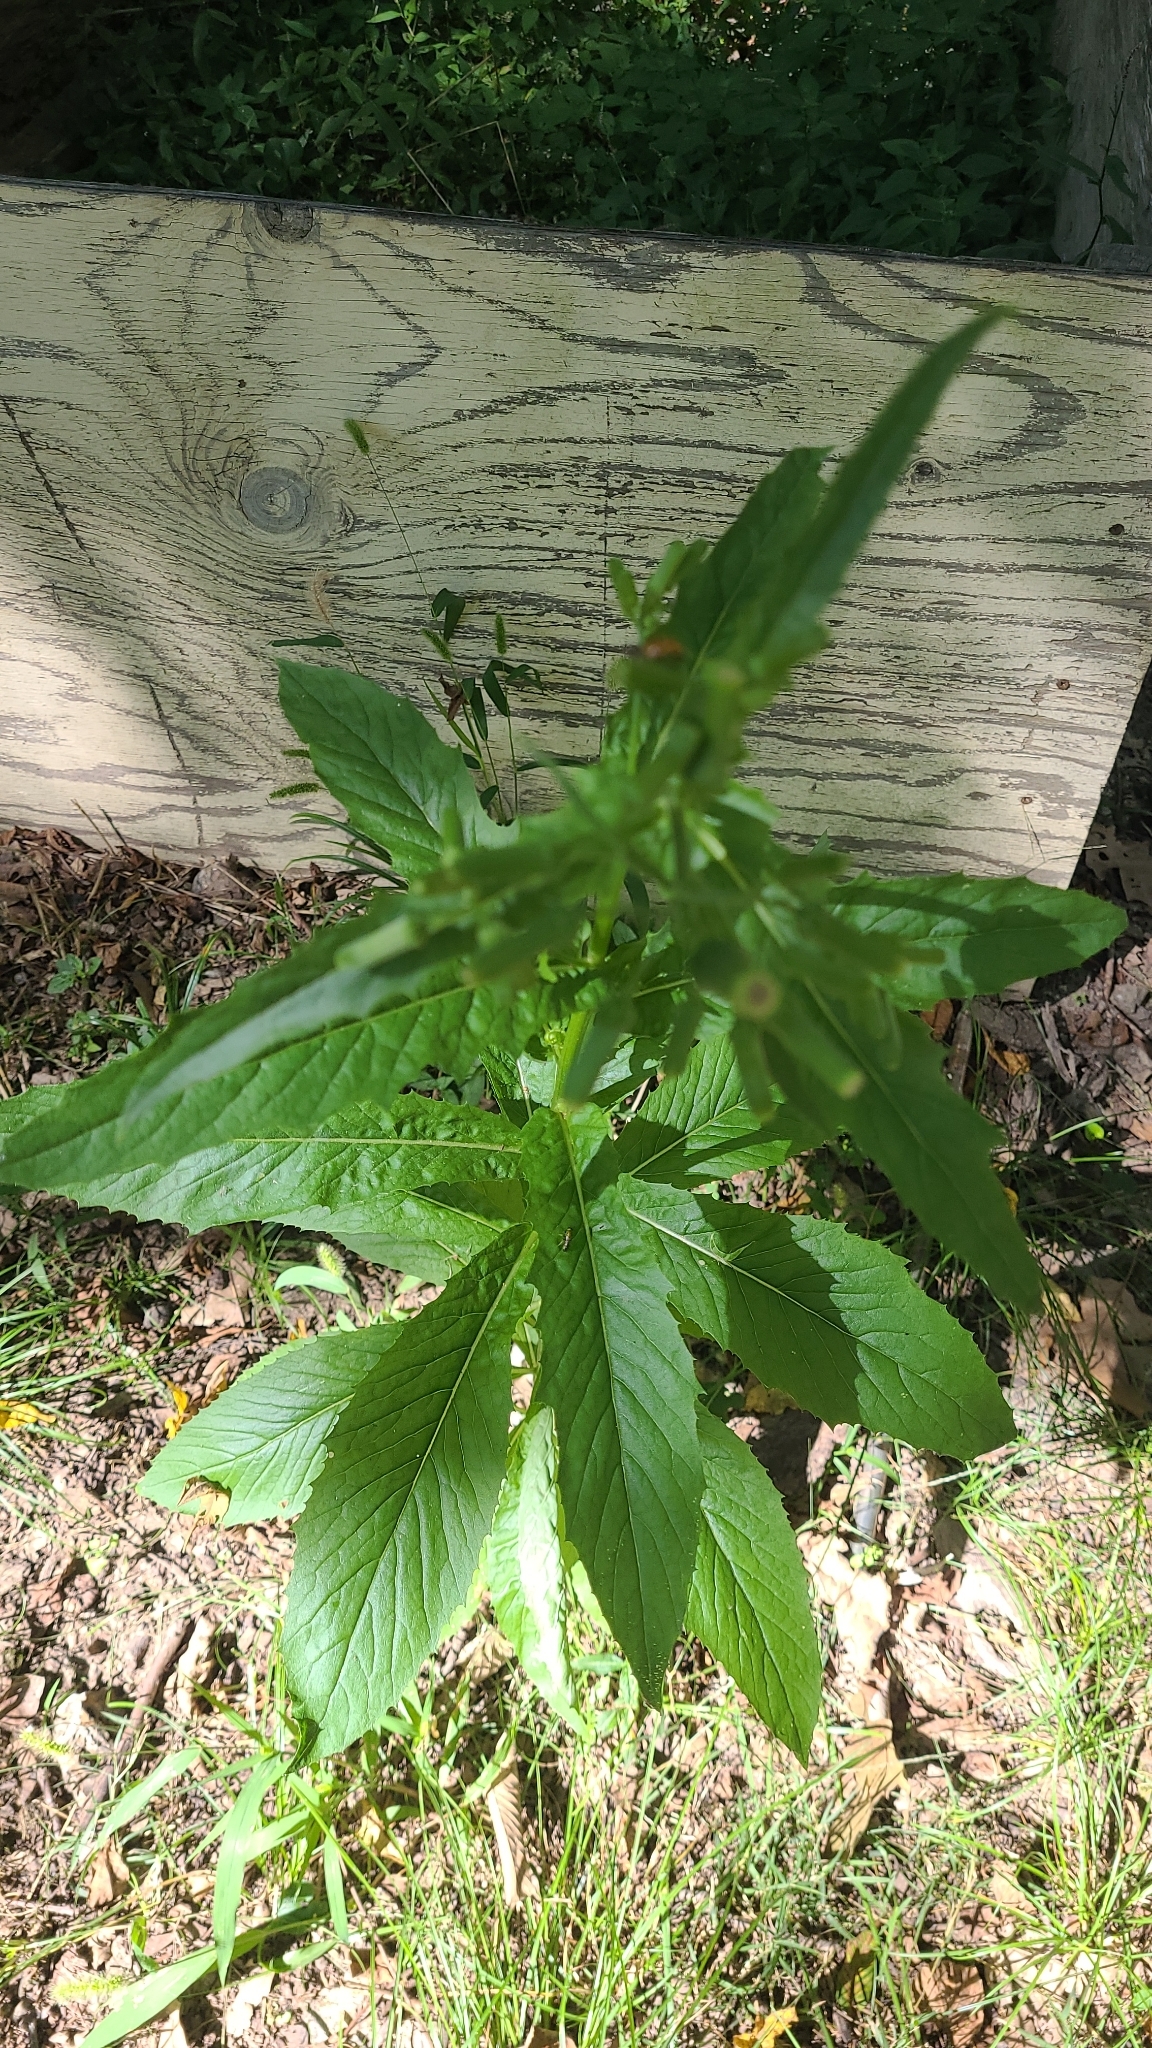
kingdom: Plantae
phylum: Tracheophyta
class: Magnoliopsida
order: Asterales
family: Asteraceae
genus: Erechtites
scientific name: Erechtites hieraciifolius
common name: American burnweed
